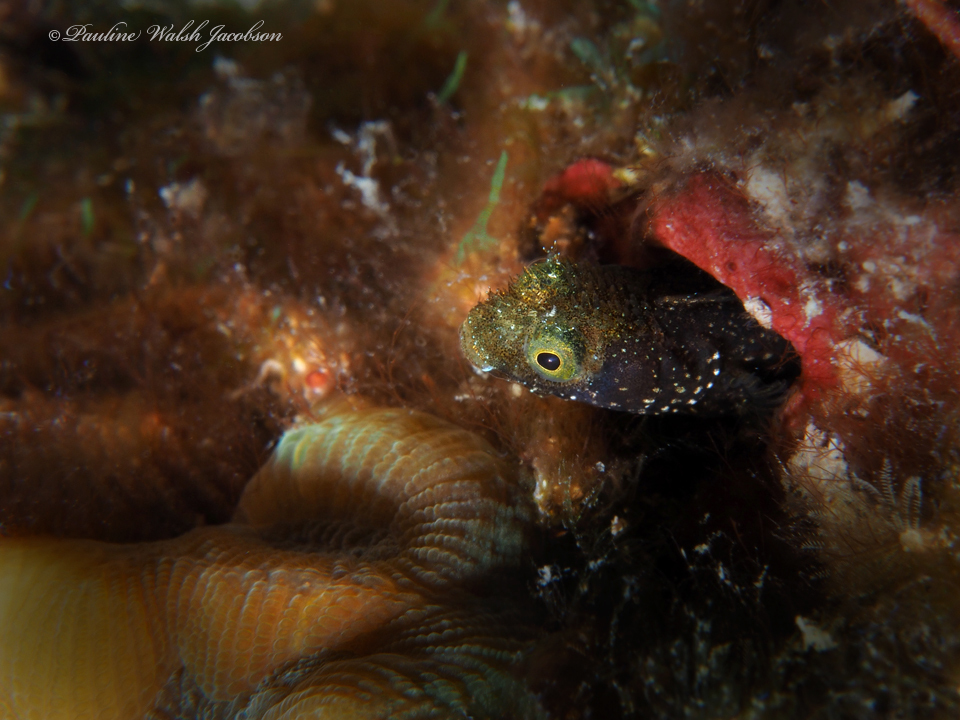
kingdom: Animalia
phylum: Chordata
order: Perciformes
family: Chaenopsidae
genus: Acanthemblemaria
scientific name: Acanthemblemaria spinosa
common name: Spinyhead blenny
